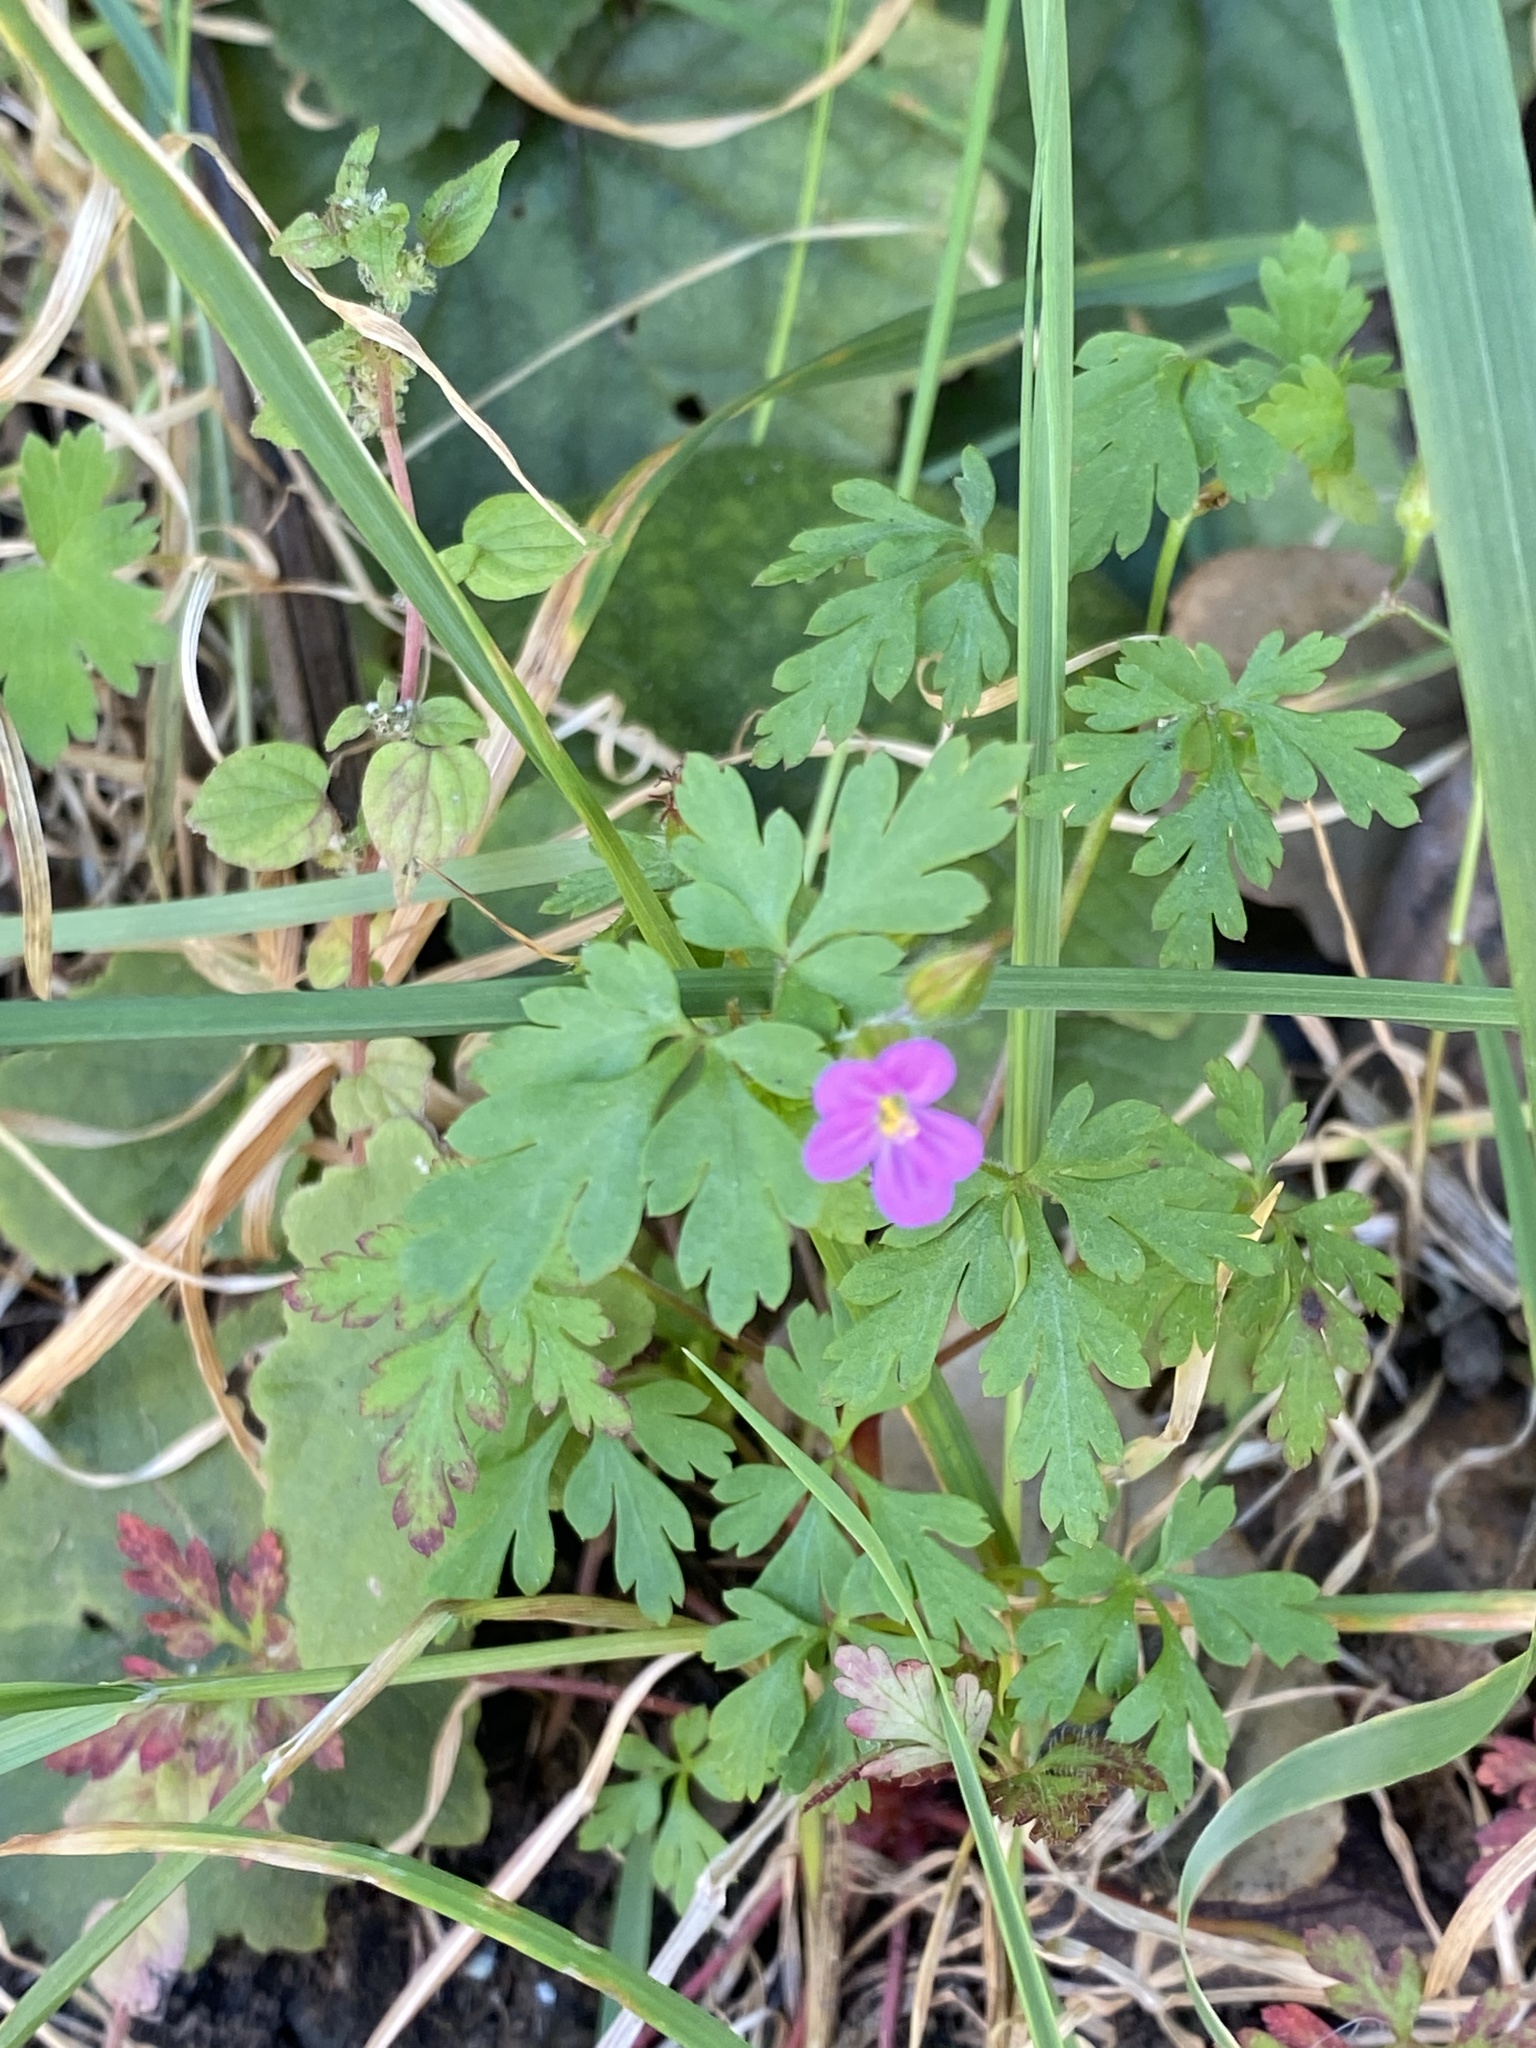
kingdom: Plantae
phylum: Tracheophyta
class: Magnoliopsida
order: Geraniales
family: Geraniaceae
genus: Geranium
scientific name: Geranium purpureum
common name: Little-robin
